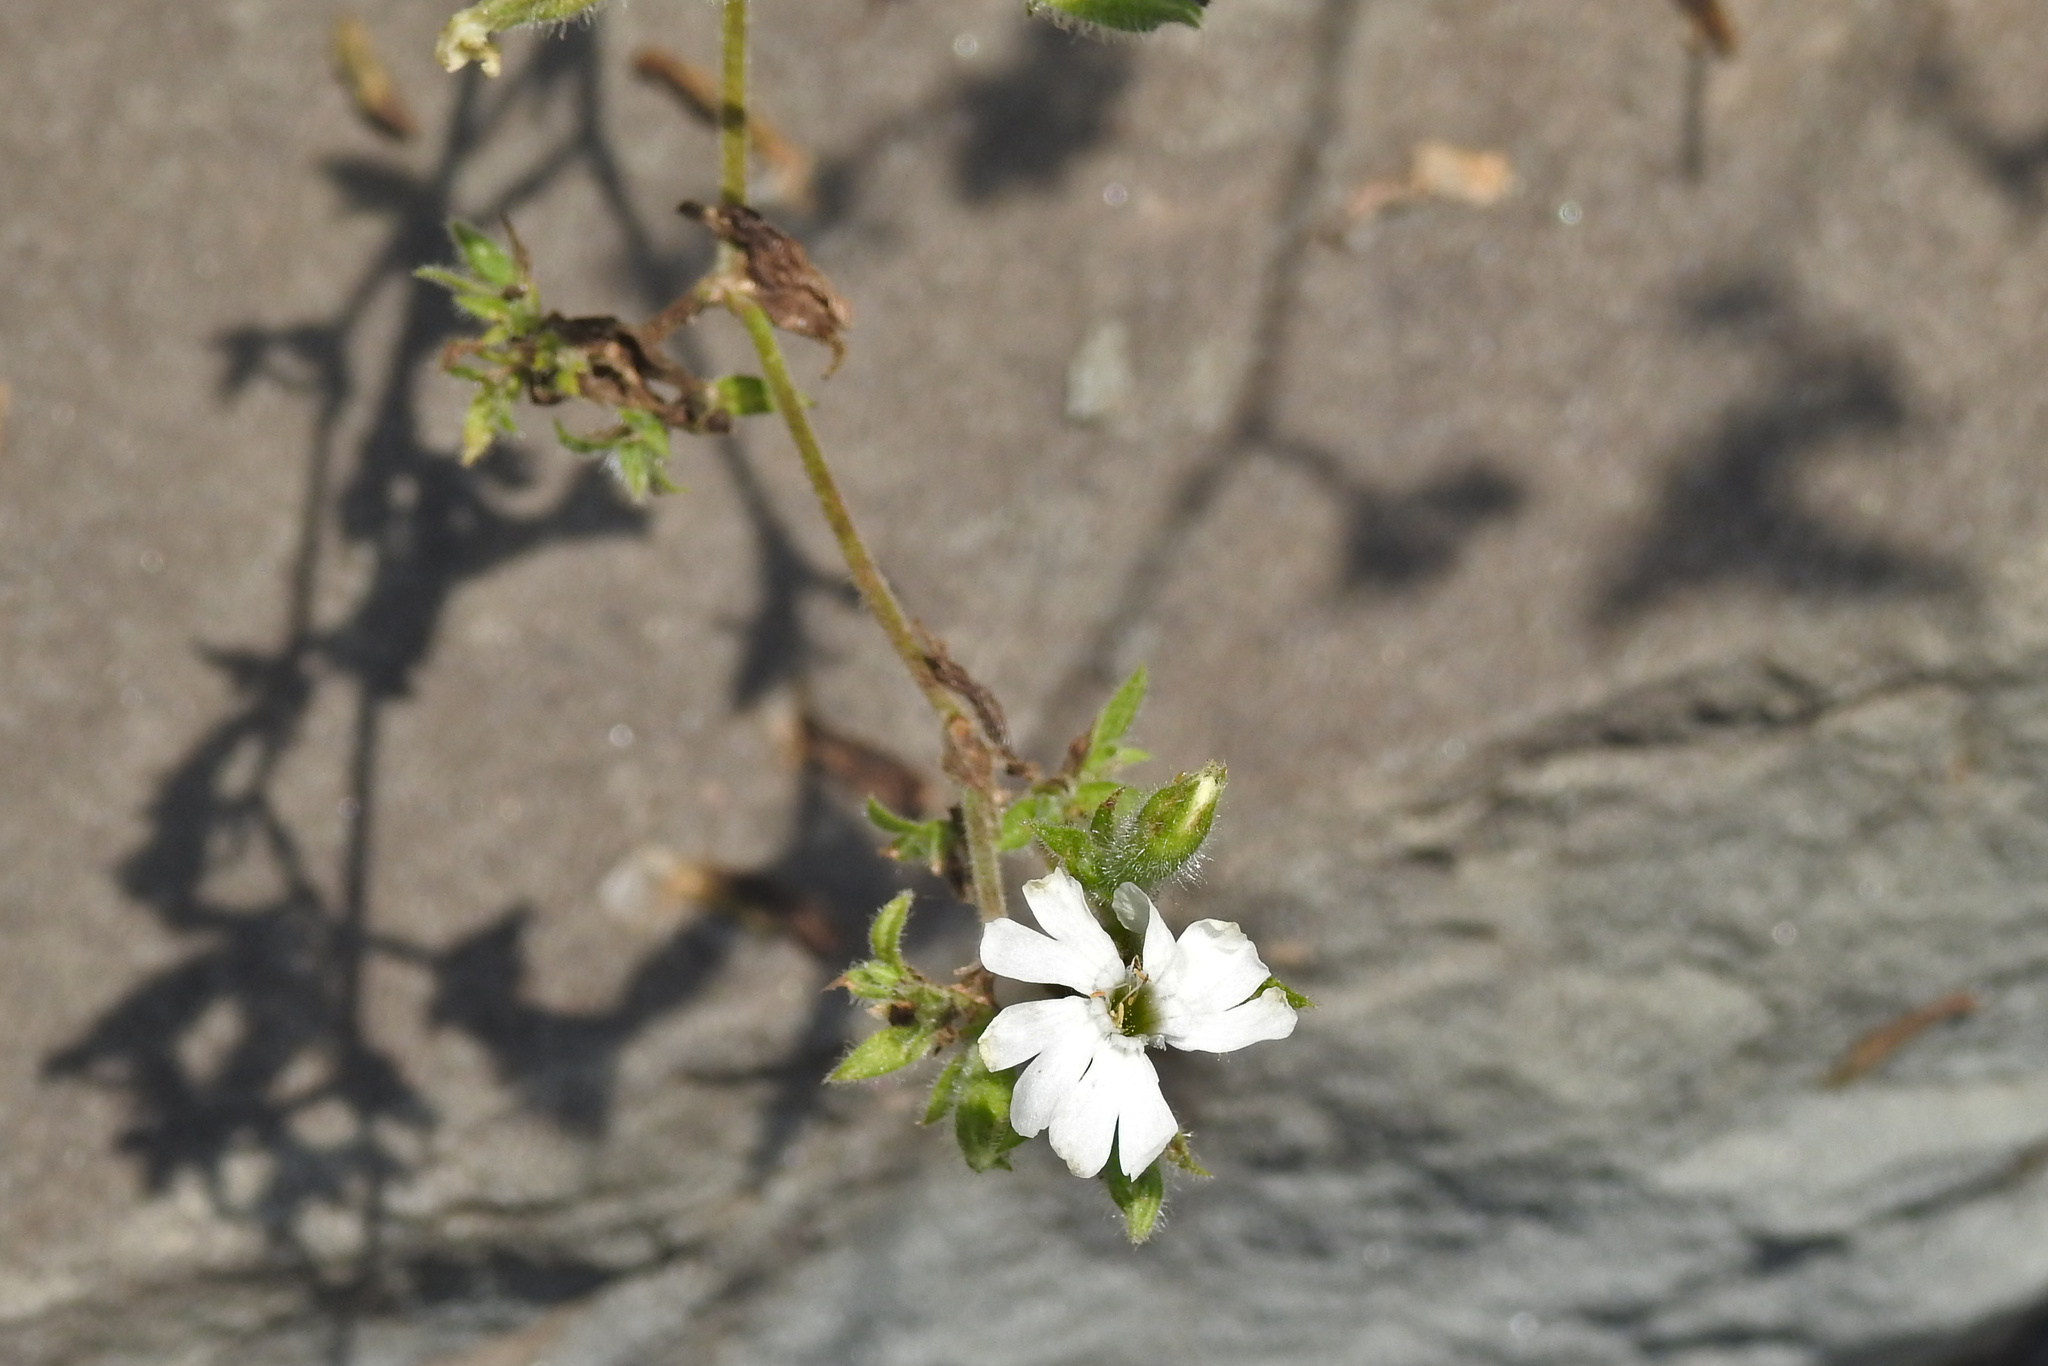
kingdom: Plantae
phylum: Tracheophyta
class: Magnoliopsida
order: Caryophyllales
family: Caryophyllaceae
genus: Silene
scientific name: Silene latifolia
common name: White campion
